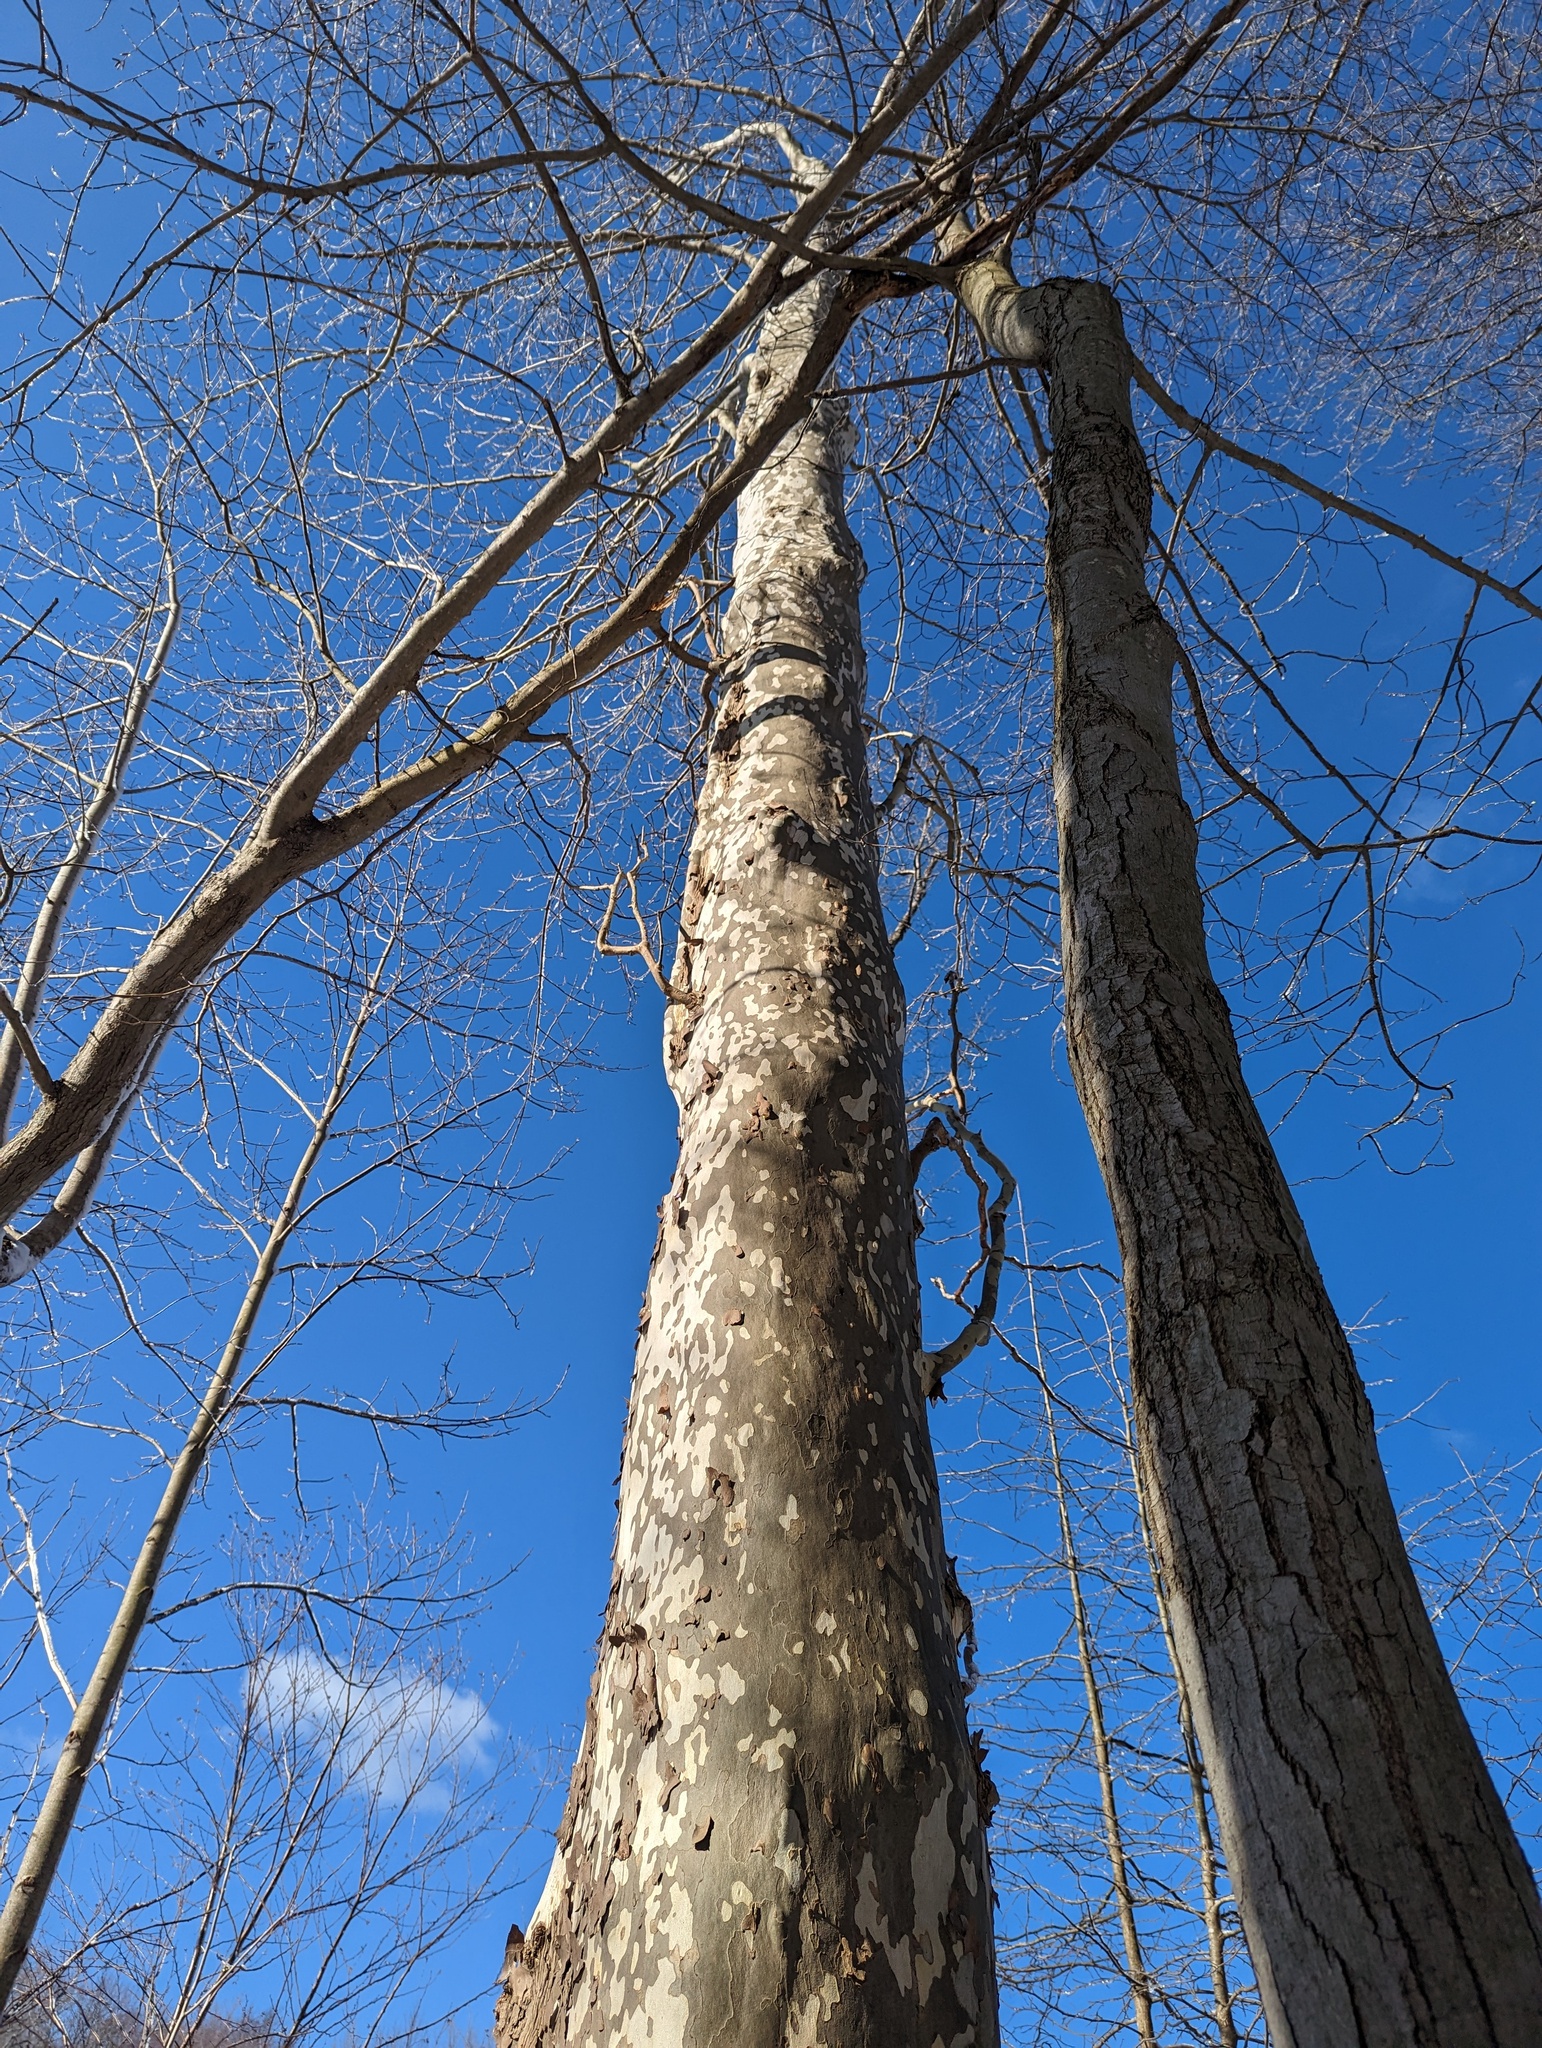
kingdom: Plantae
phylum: Tracheophyta
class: Magnoliopsida
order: Proteales
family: Platanaceae
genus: Platanus
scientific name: Platanus occidentalis
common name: American sycamore
